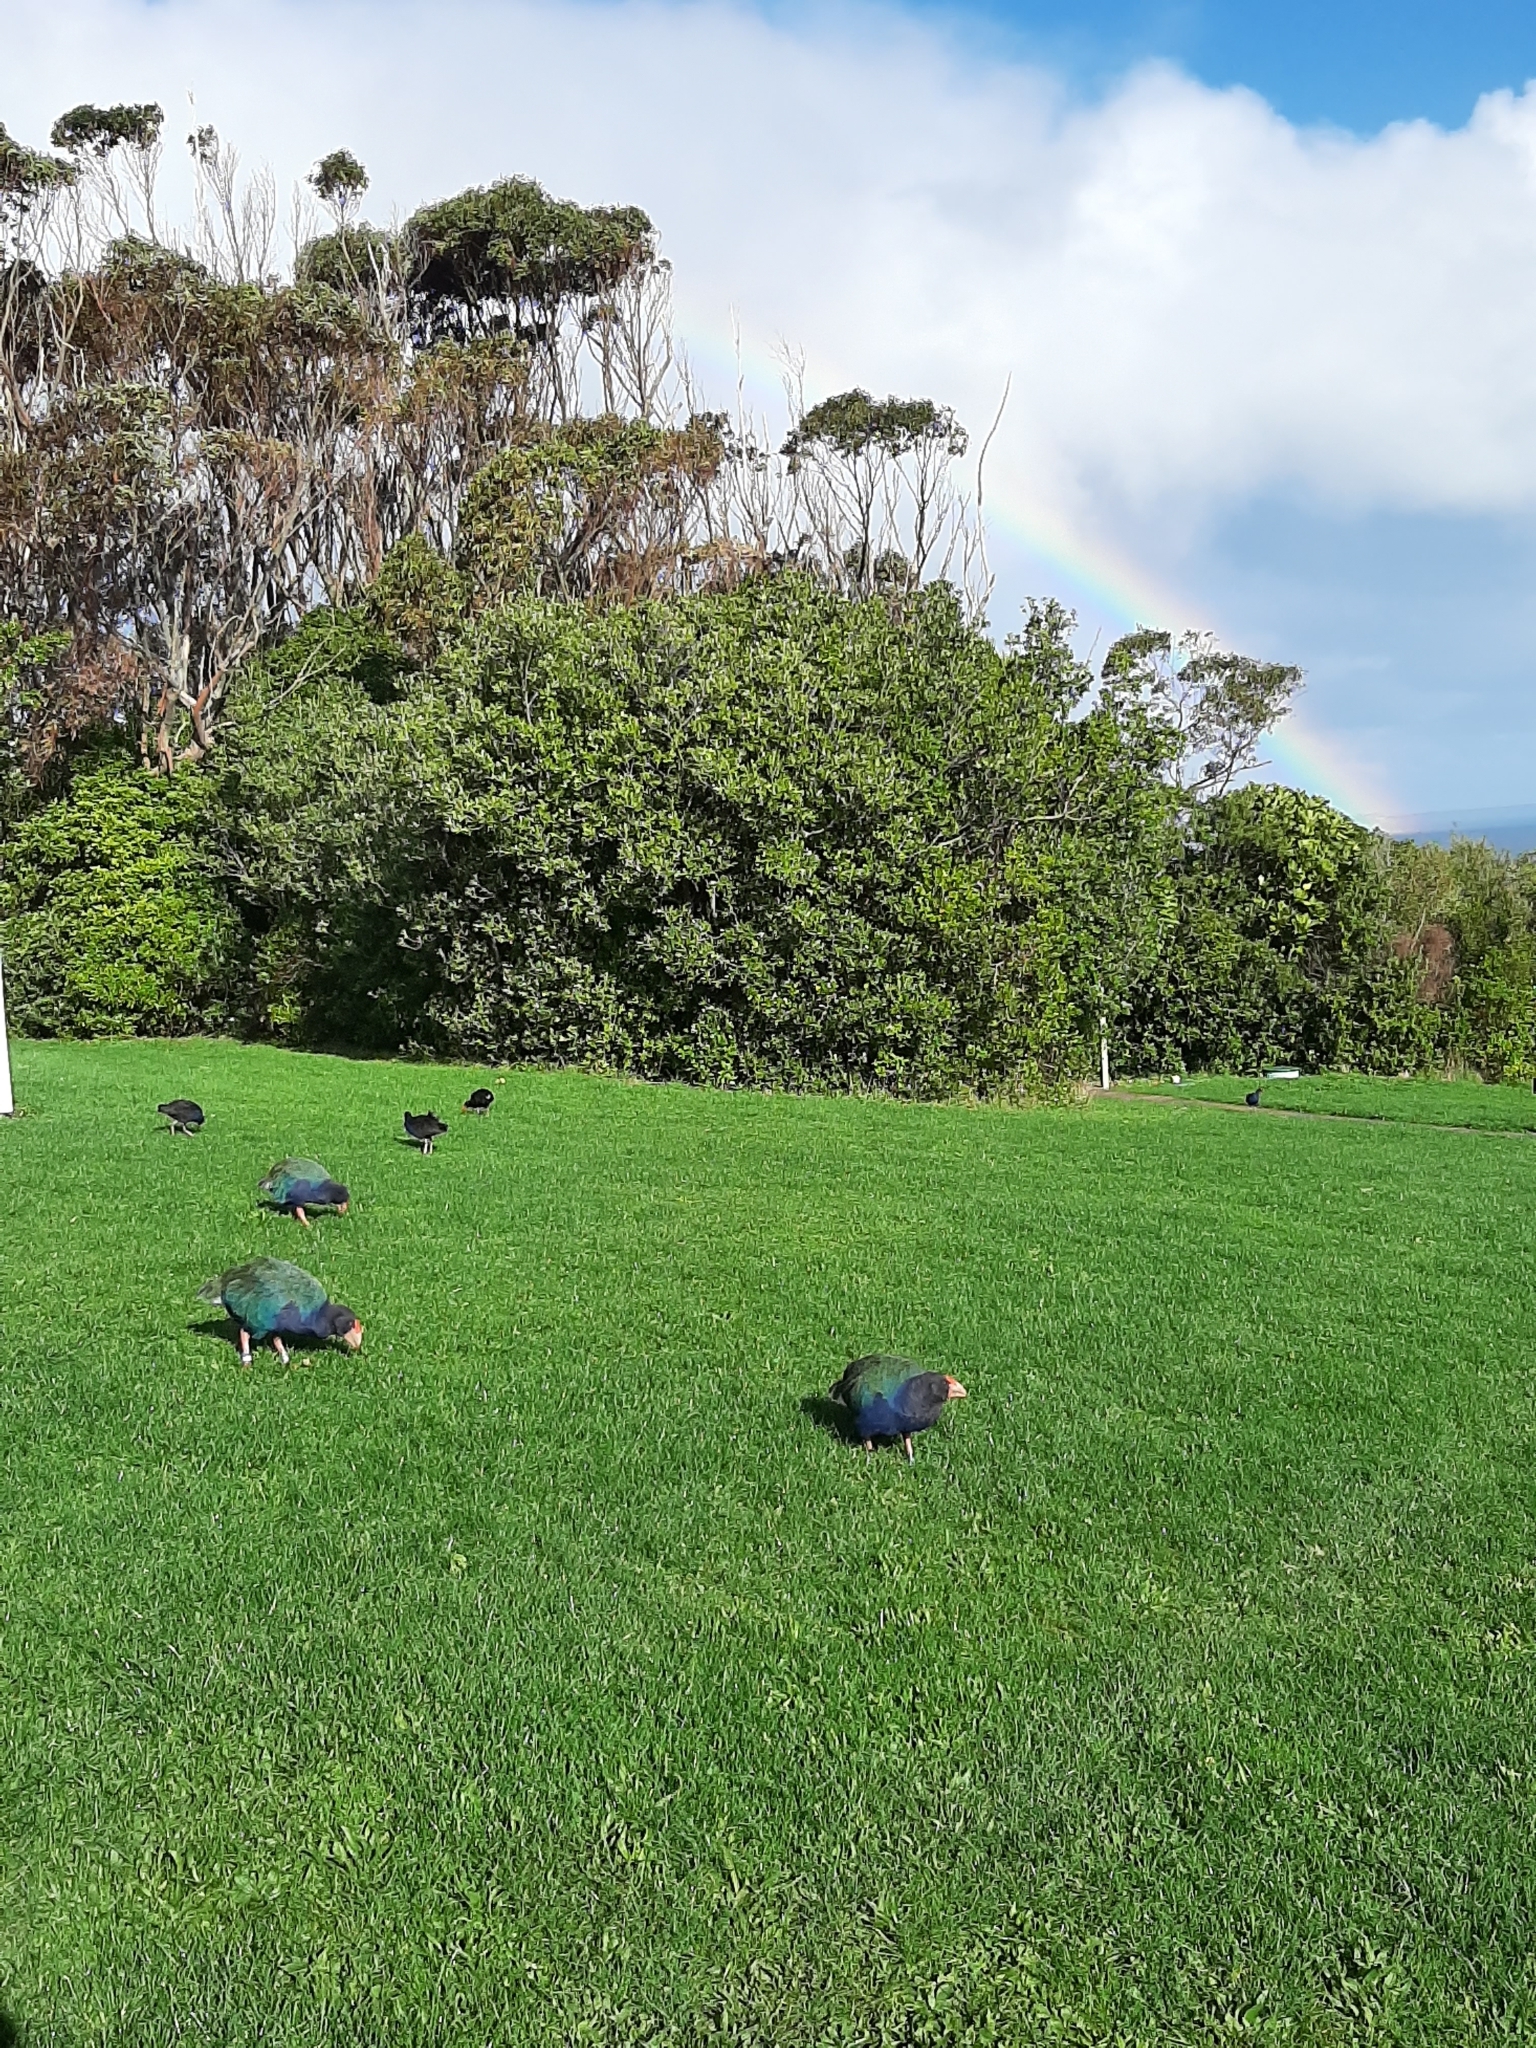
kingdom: Animalia
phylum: Chordata
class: Aves
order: Gruiformes
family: Rallidae
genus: Porphyrio
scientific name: Porphyrio hochstetteri
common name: South island takahe
